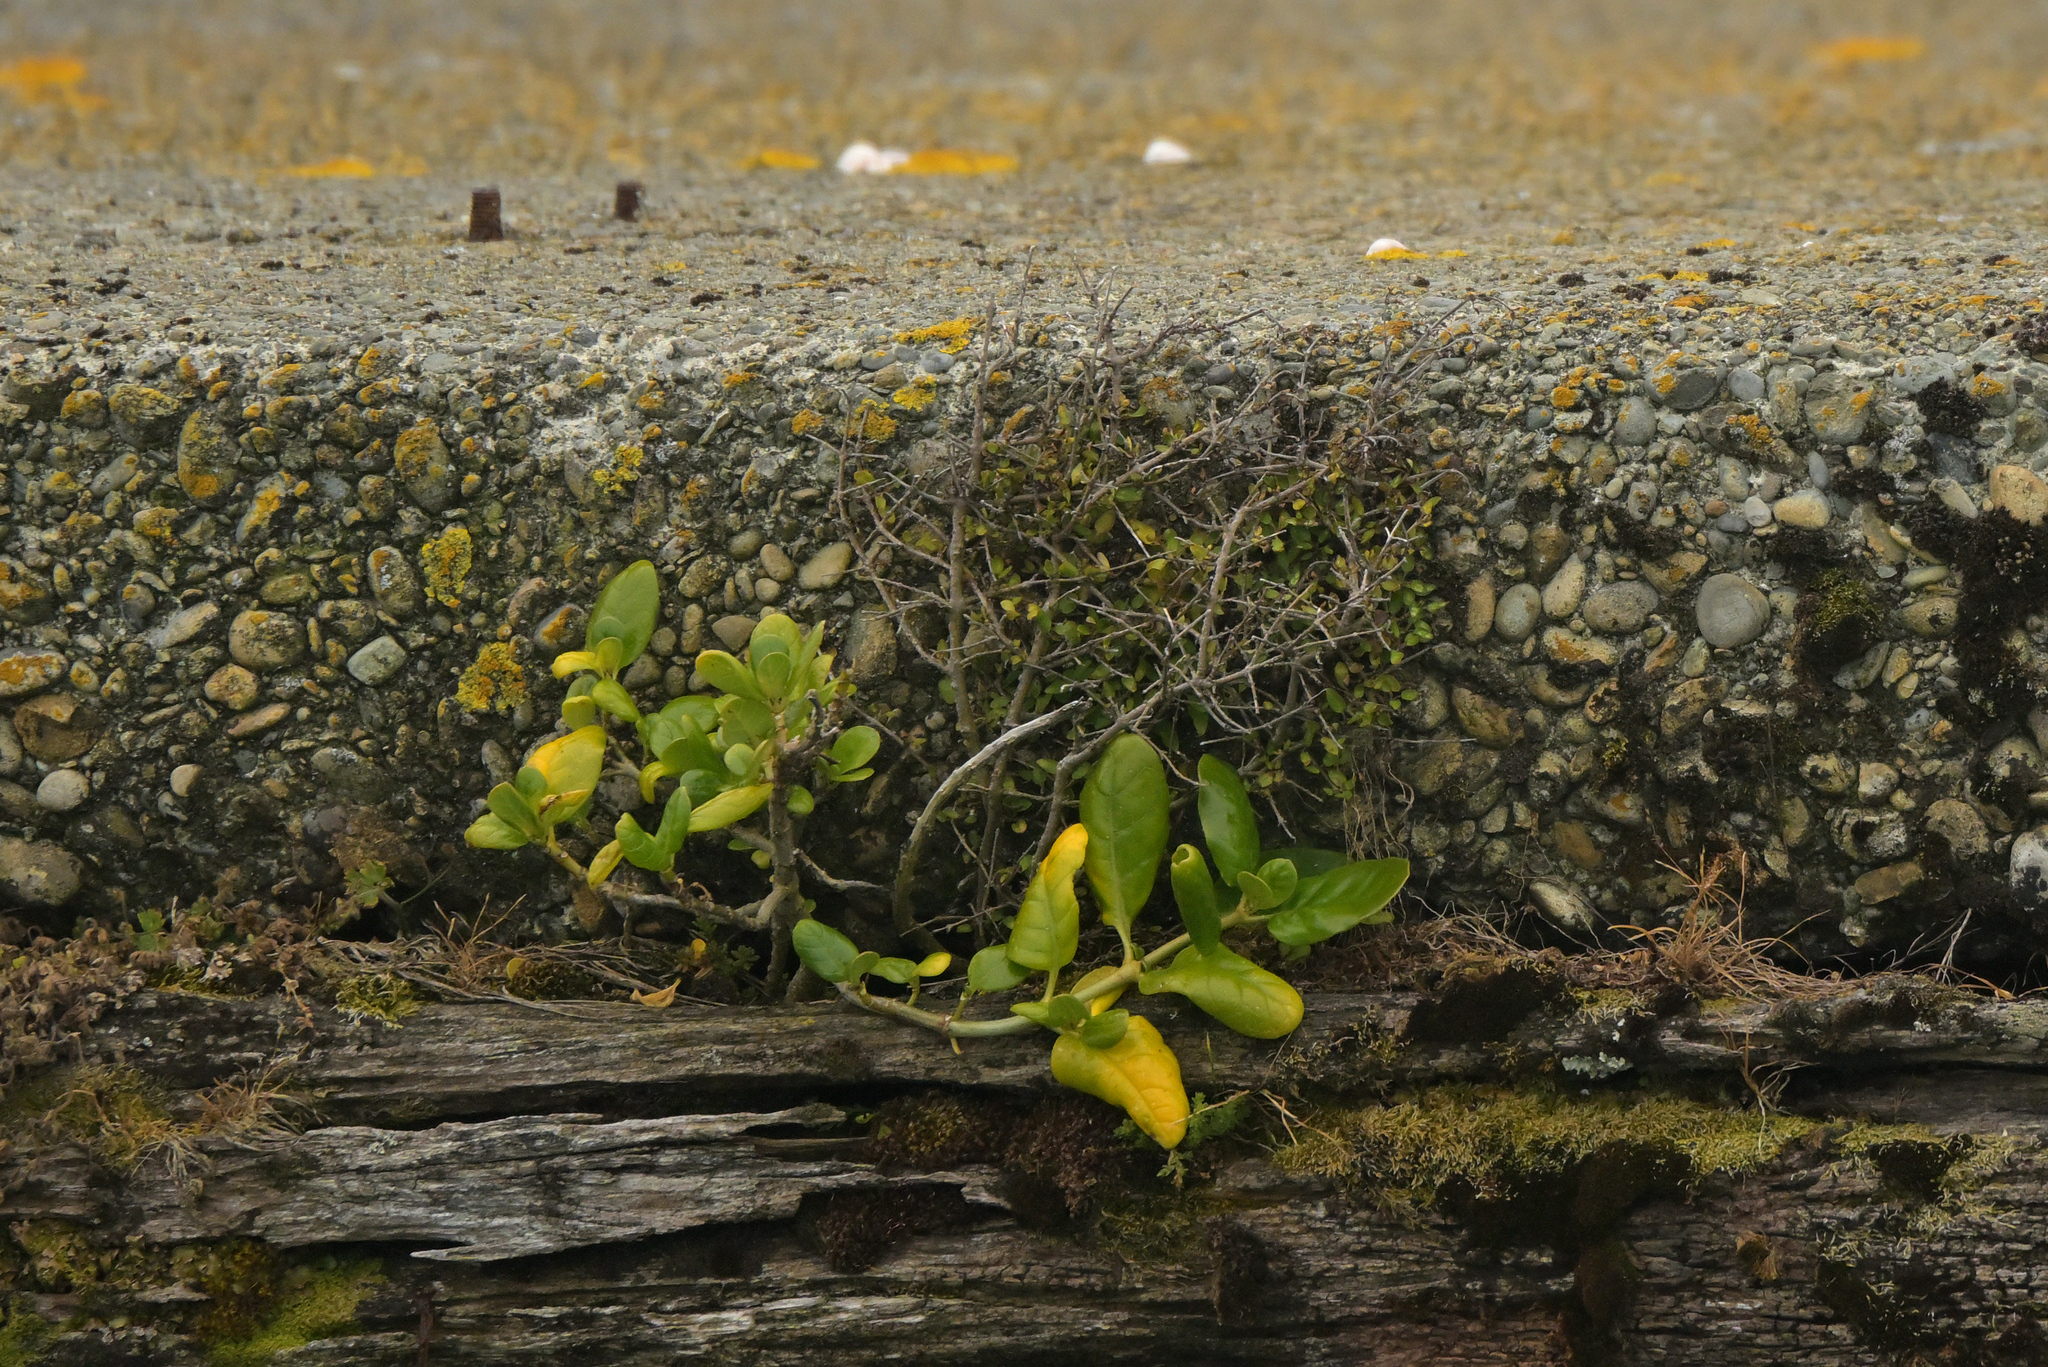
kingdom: Plantae
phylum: Tracheophyta
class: Magnoliopsida
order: Gentianales
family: Rubiaceae
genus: Coprosma
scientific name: Coprosma repens
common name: Tree bedstraw
